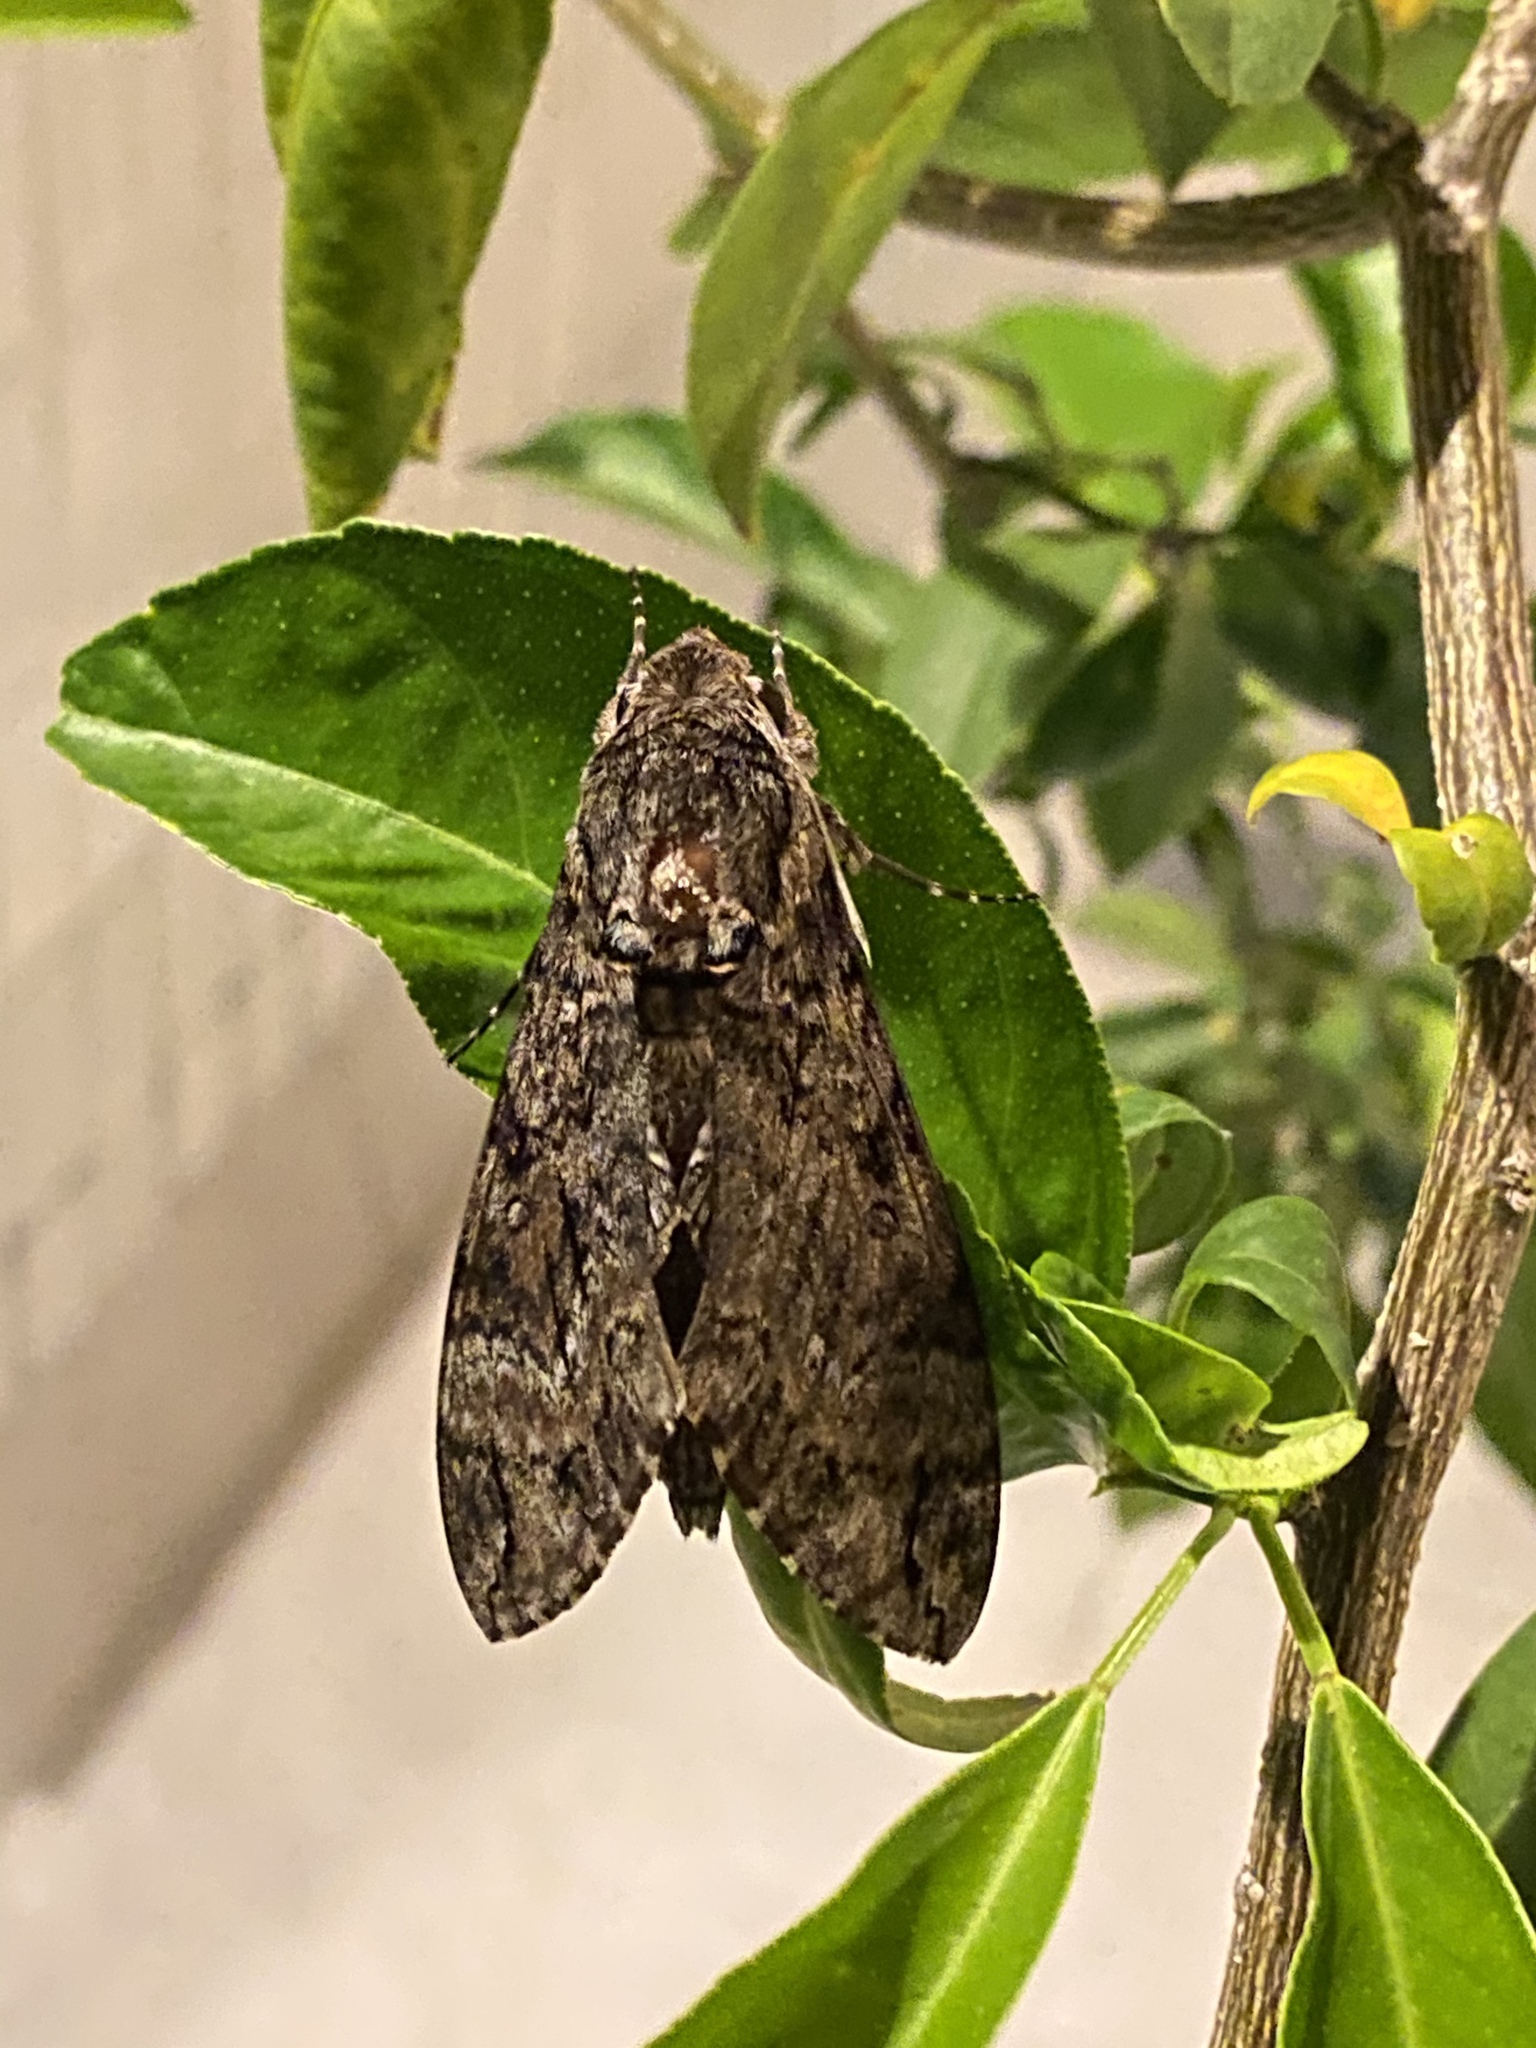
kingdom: Animalia
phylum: Arthropoda
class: Insecta
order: Lepidoptera
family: Sphingidae
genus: Agrius
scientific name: Agrius cingulata
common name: Pink-spotted hawkmoth
